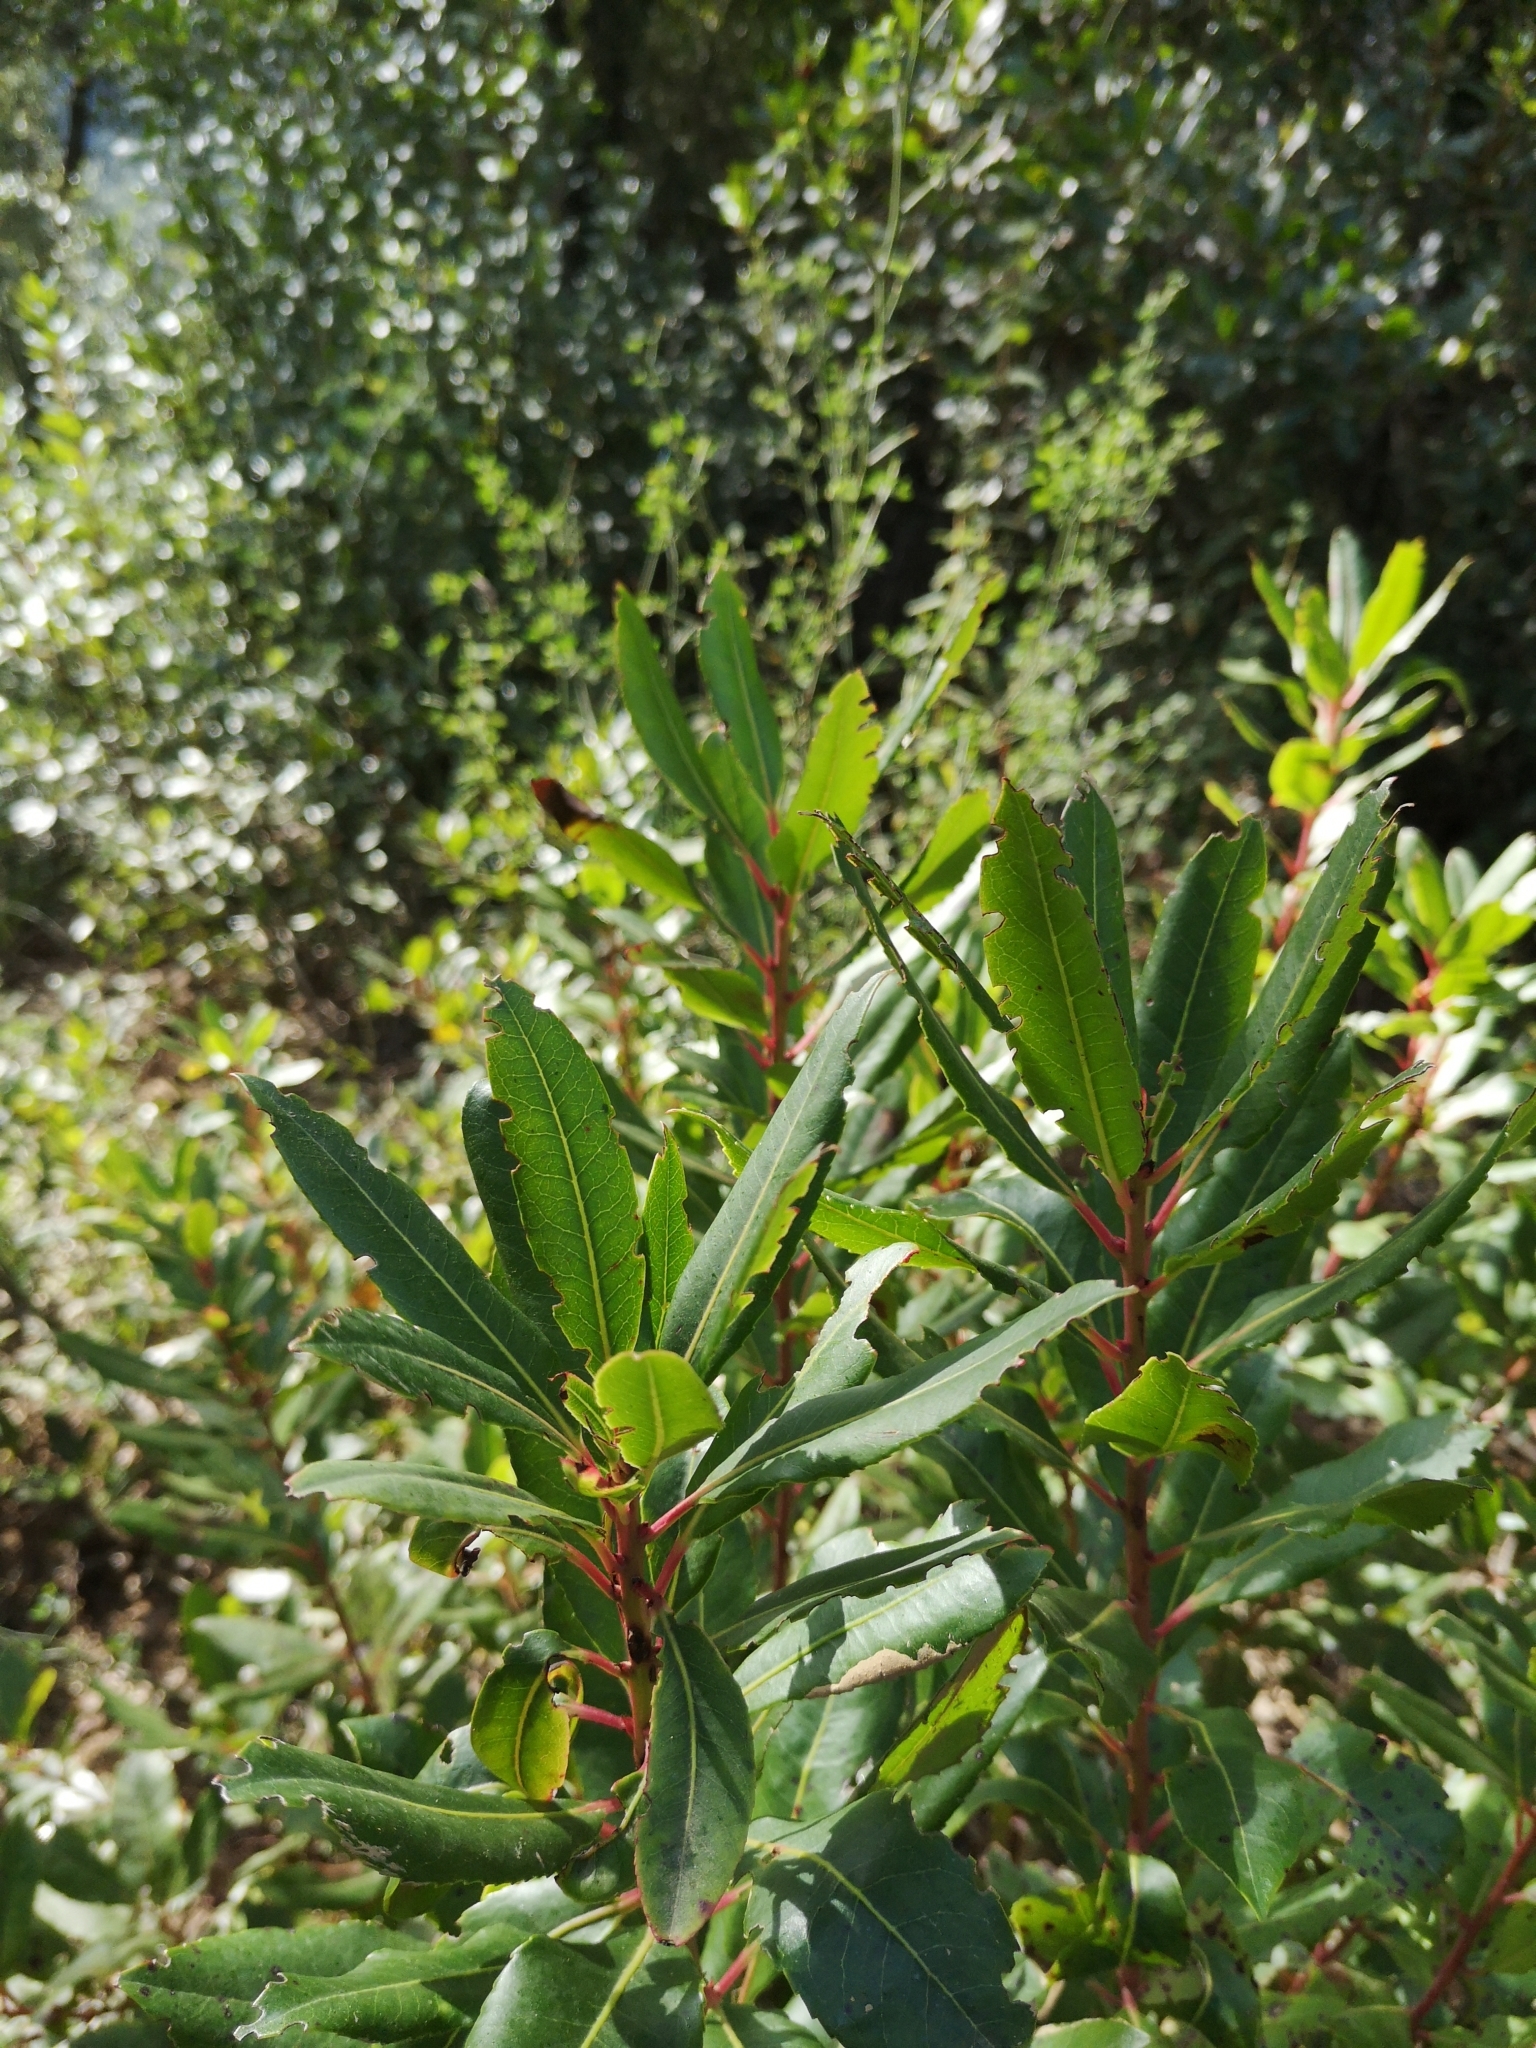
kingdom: Plantae
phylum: Tracheophyta
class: Magnoliopsida
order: Ericales
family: Ericaceae
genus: Arbutus
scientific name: Arbutus unedo
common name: Strawberry-tree
